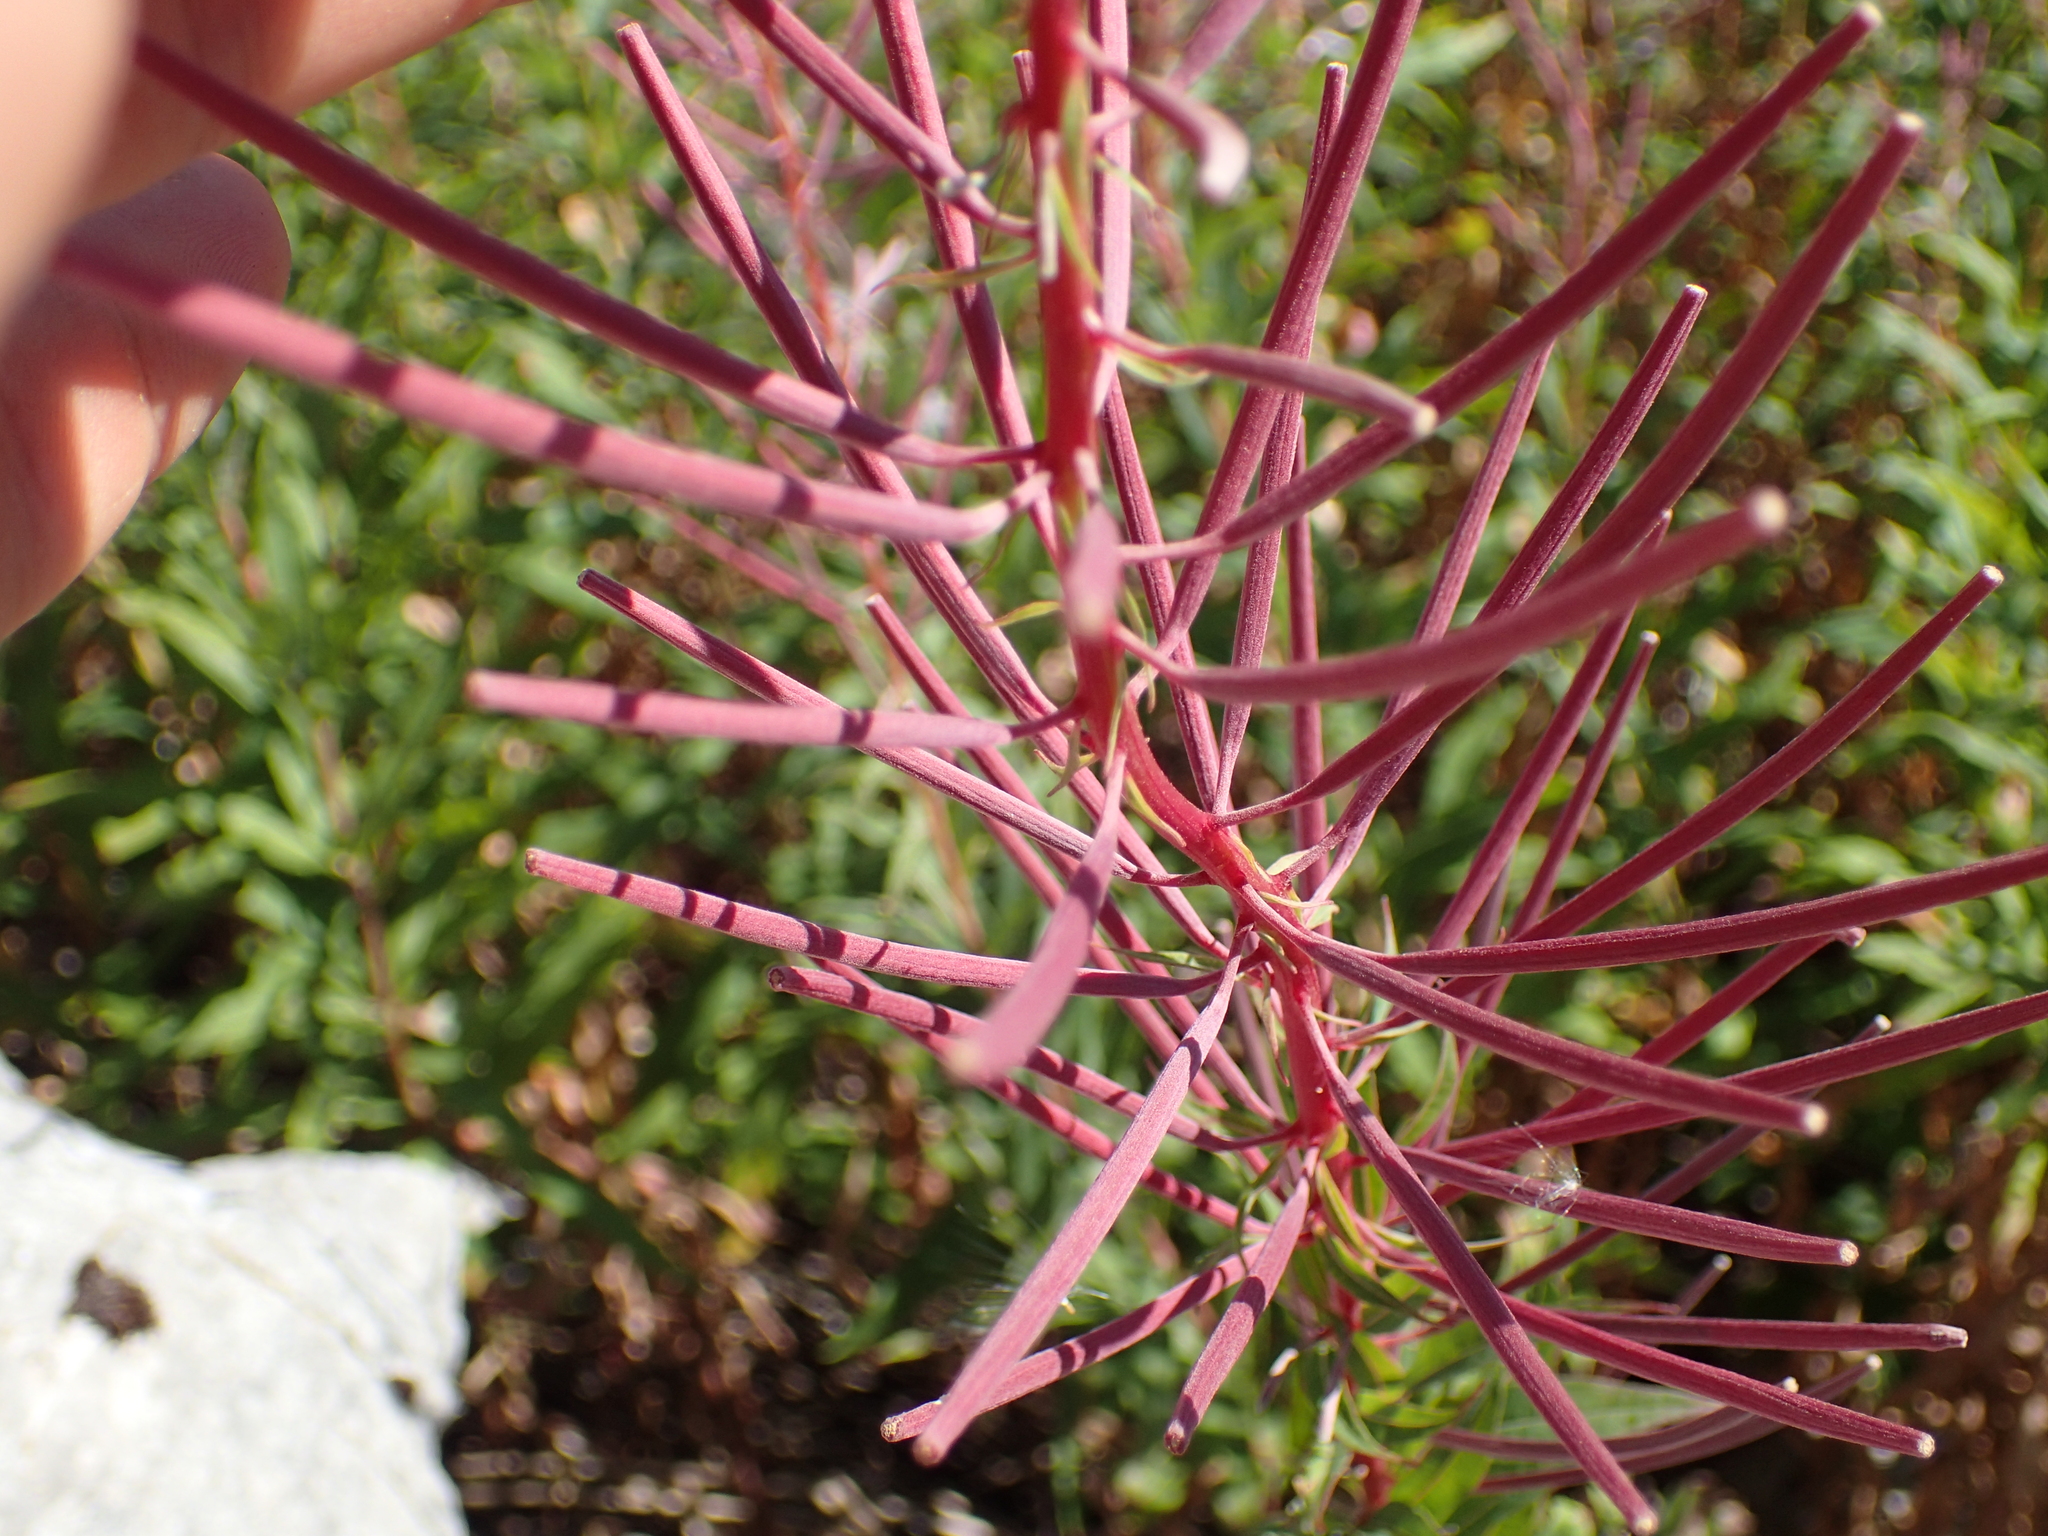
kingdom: Plantae
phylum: Tracheophyta
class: Magnoliopsida
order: Myrtales
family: Onagraceae
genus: Chamaenerion
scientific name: Chamaenerion angustifolium
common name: Fireweed
